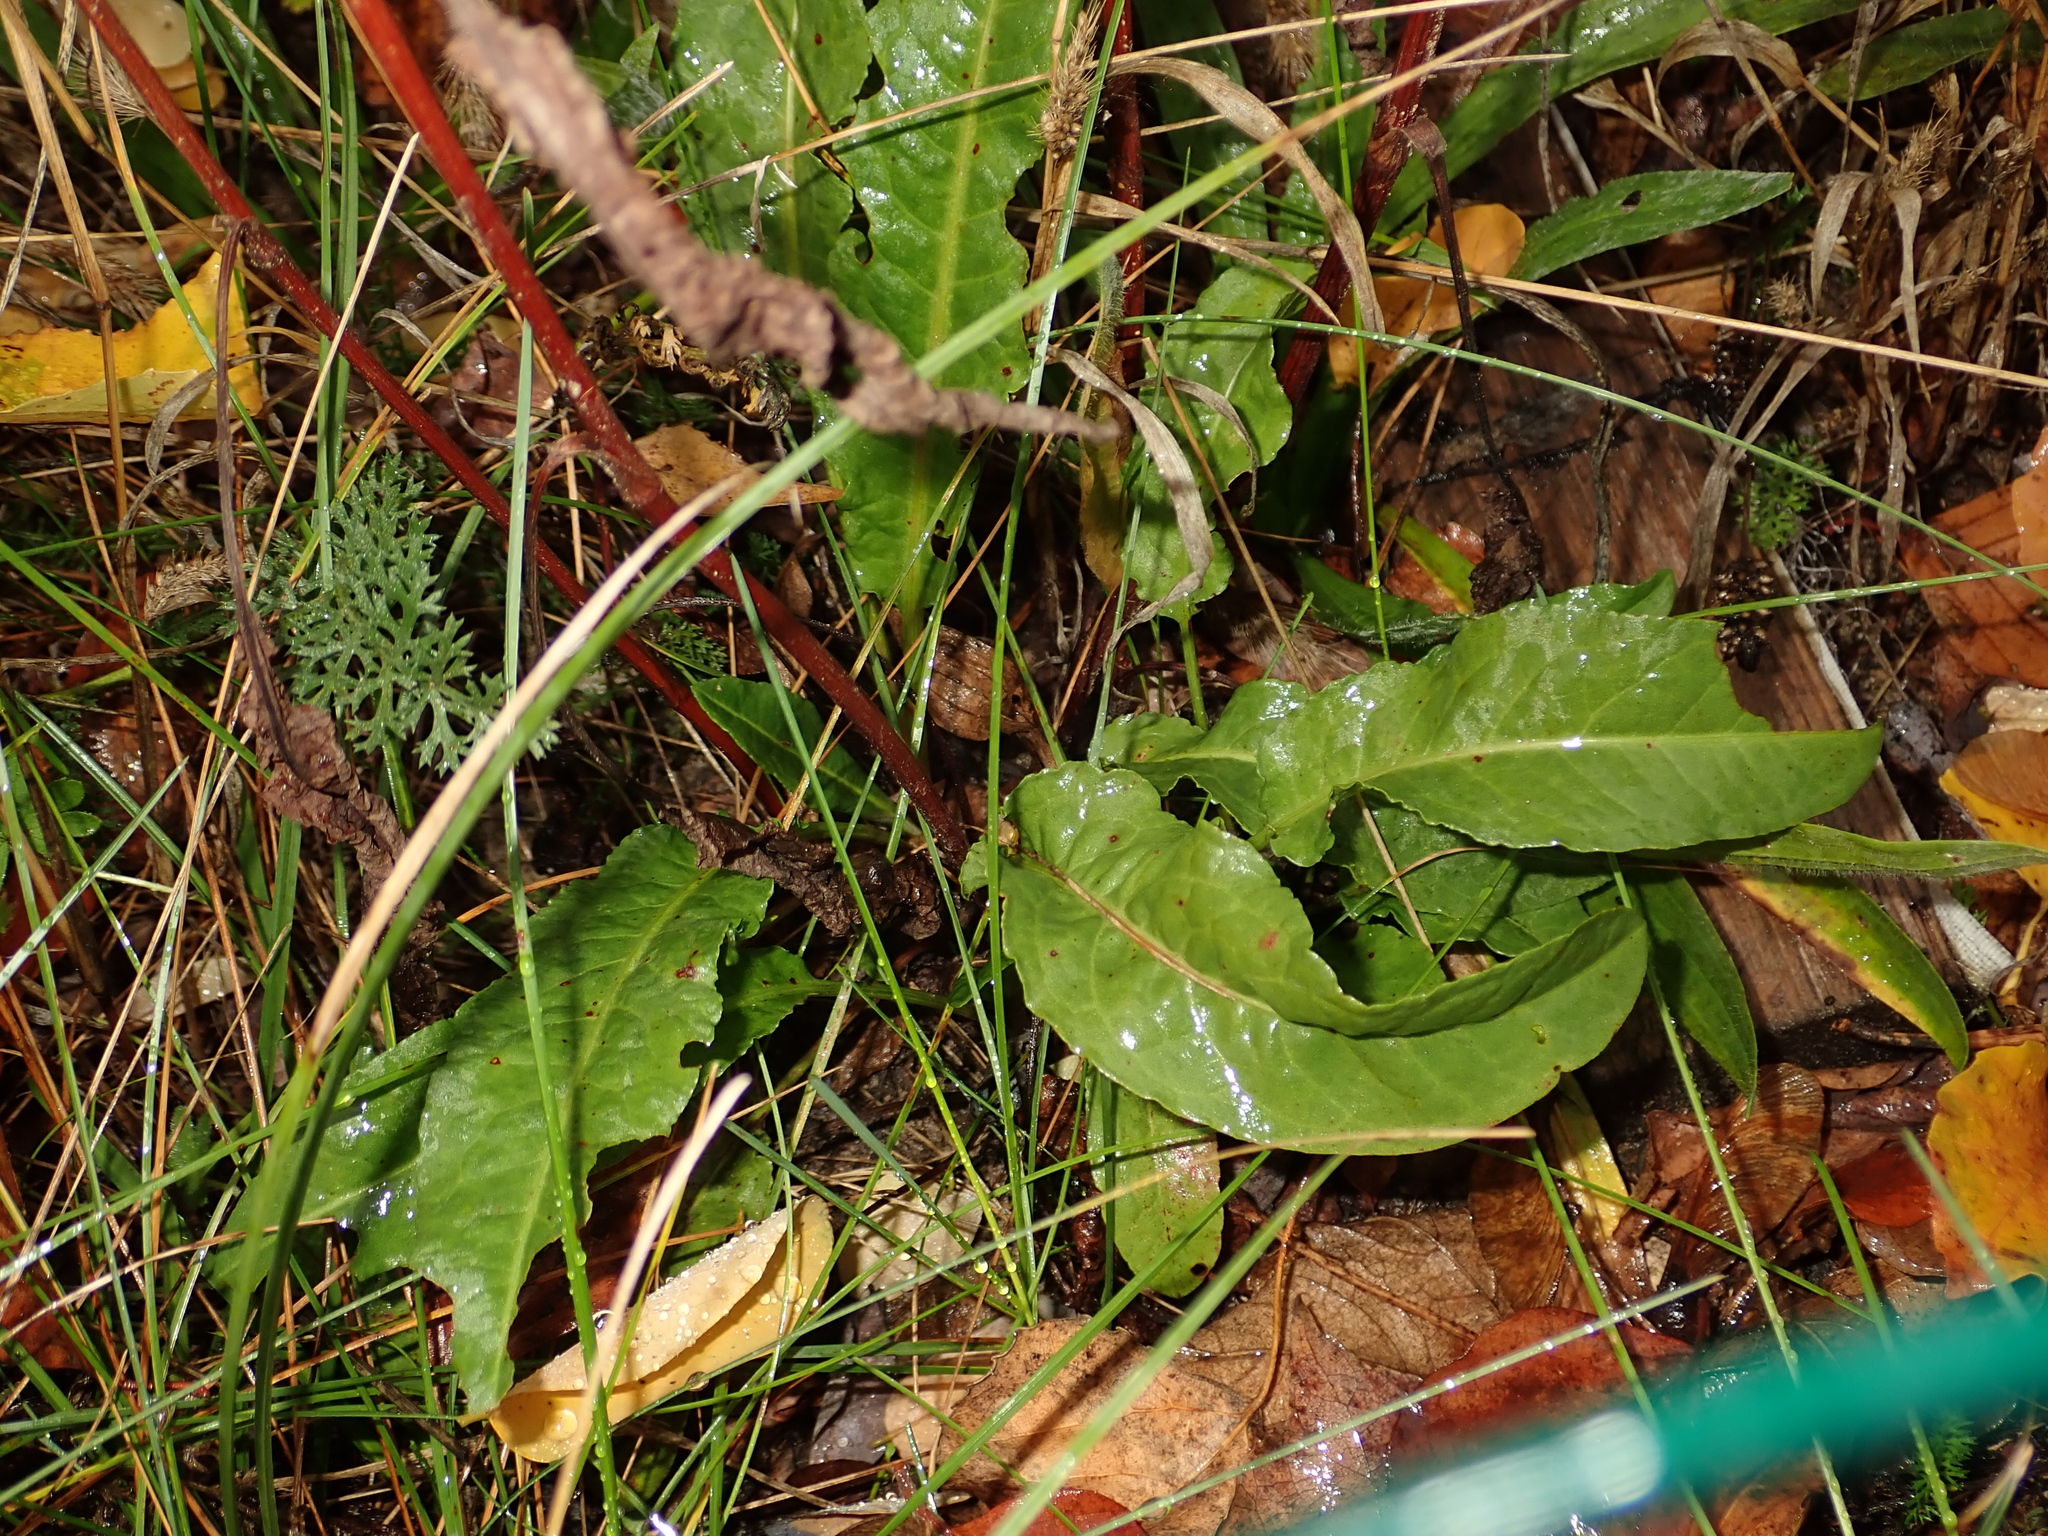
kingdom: Plantae
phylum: Tracheophyta
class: Magnoliopsida
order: Caryophyllales
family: Polygonaceae
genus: Rumex
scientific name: Rumex crispus
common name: Curled dock
